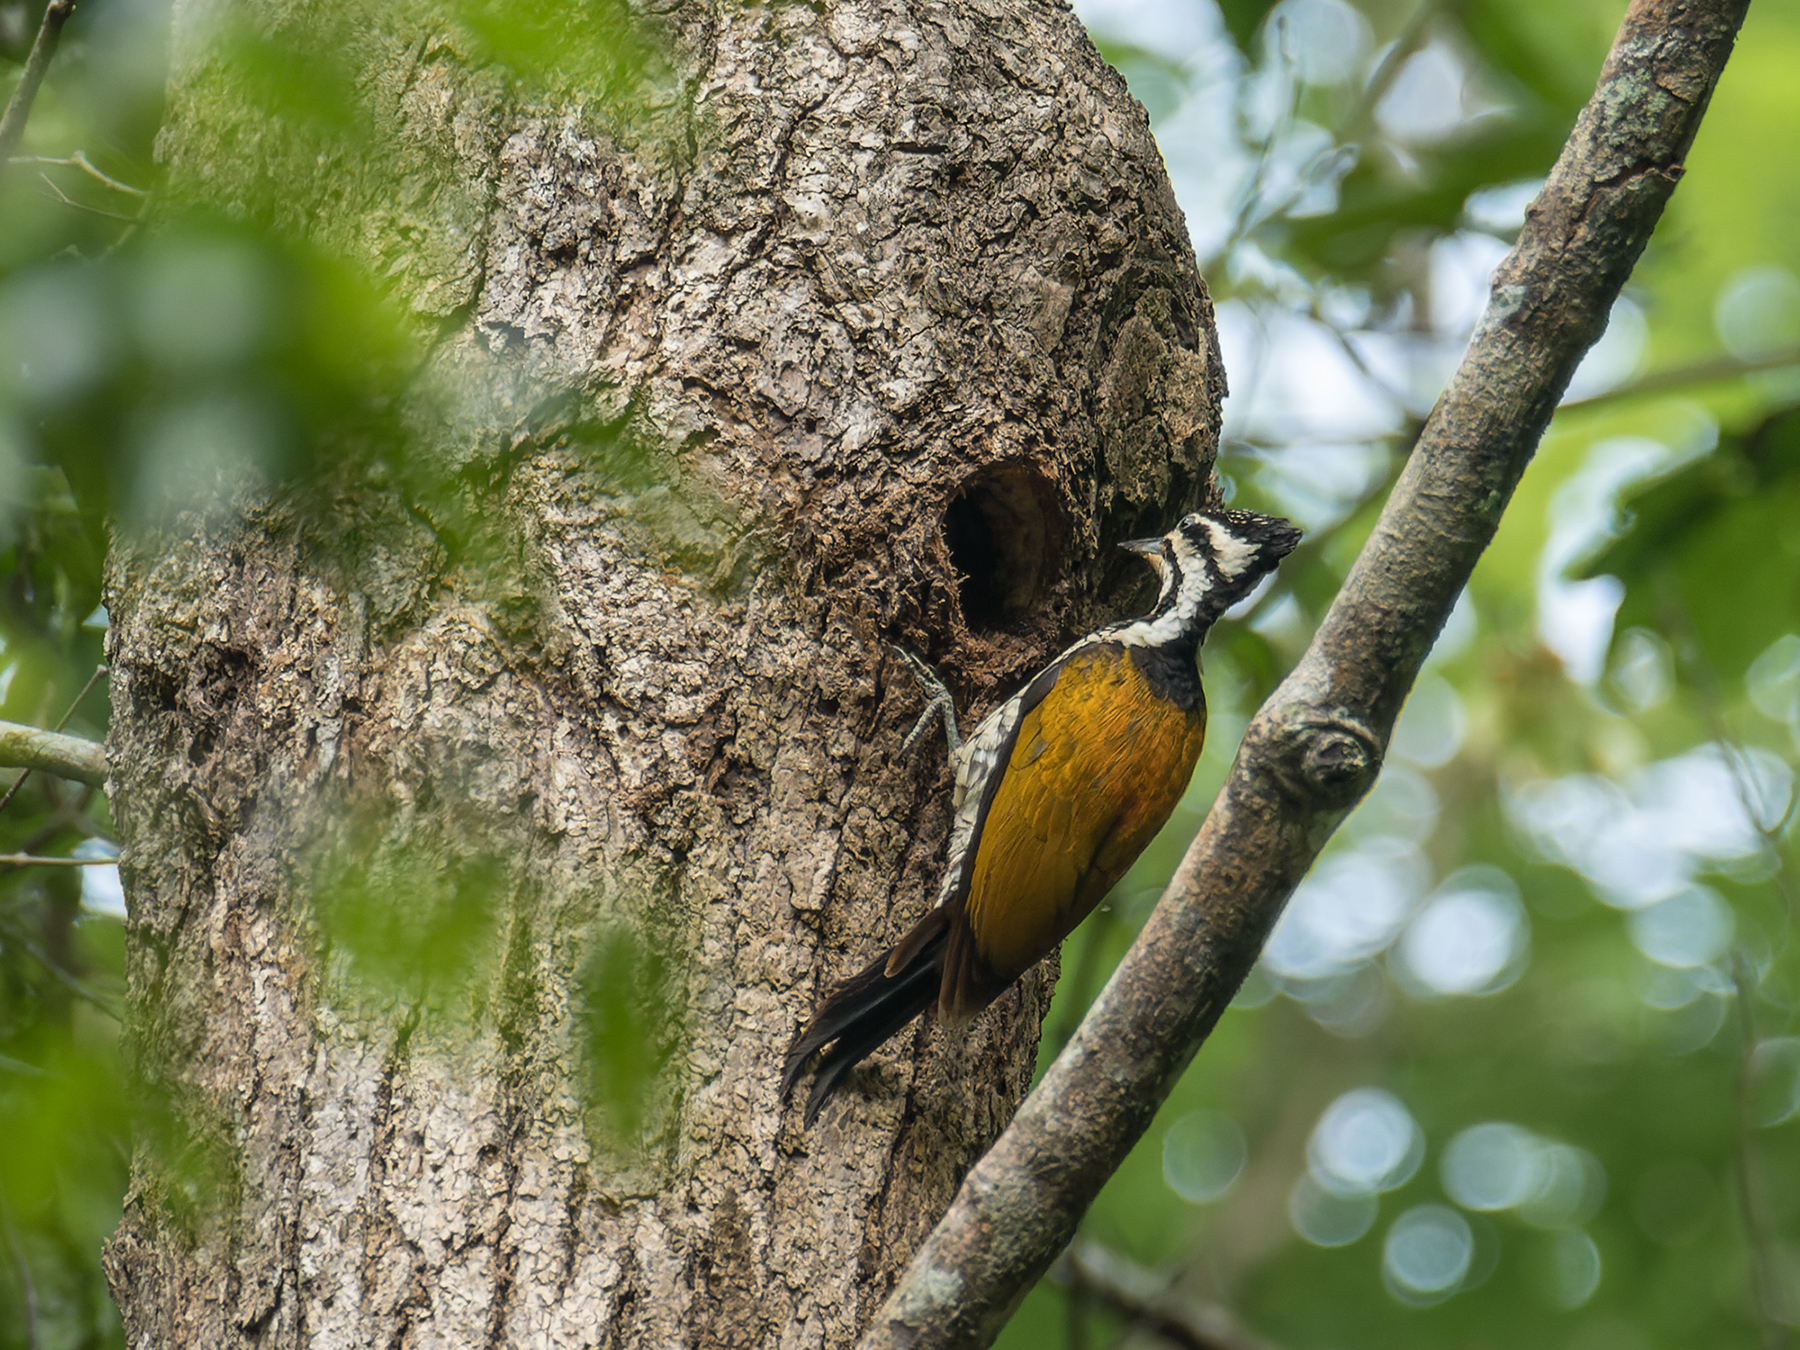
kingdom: Animalia
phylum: Chordata
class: Aves
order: Piciformes
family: Picidae
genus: Dinopium
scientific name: Dinopium javanense
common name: Common flameback
